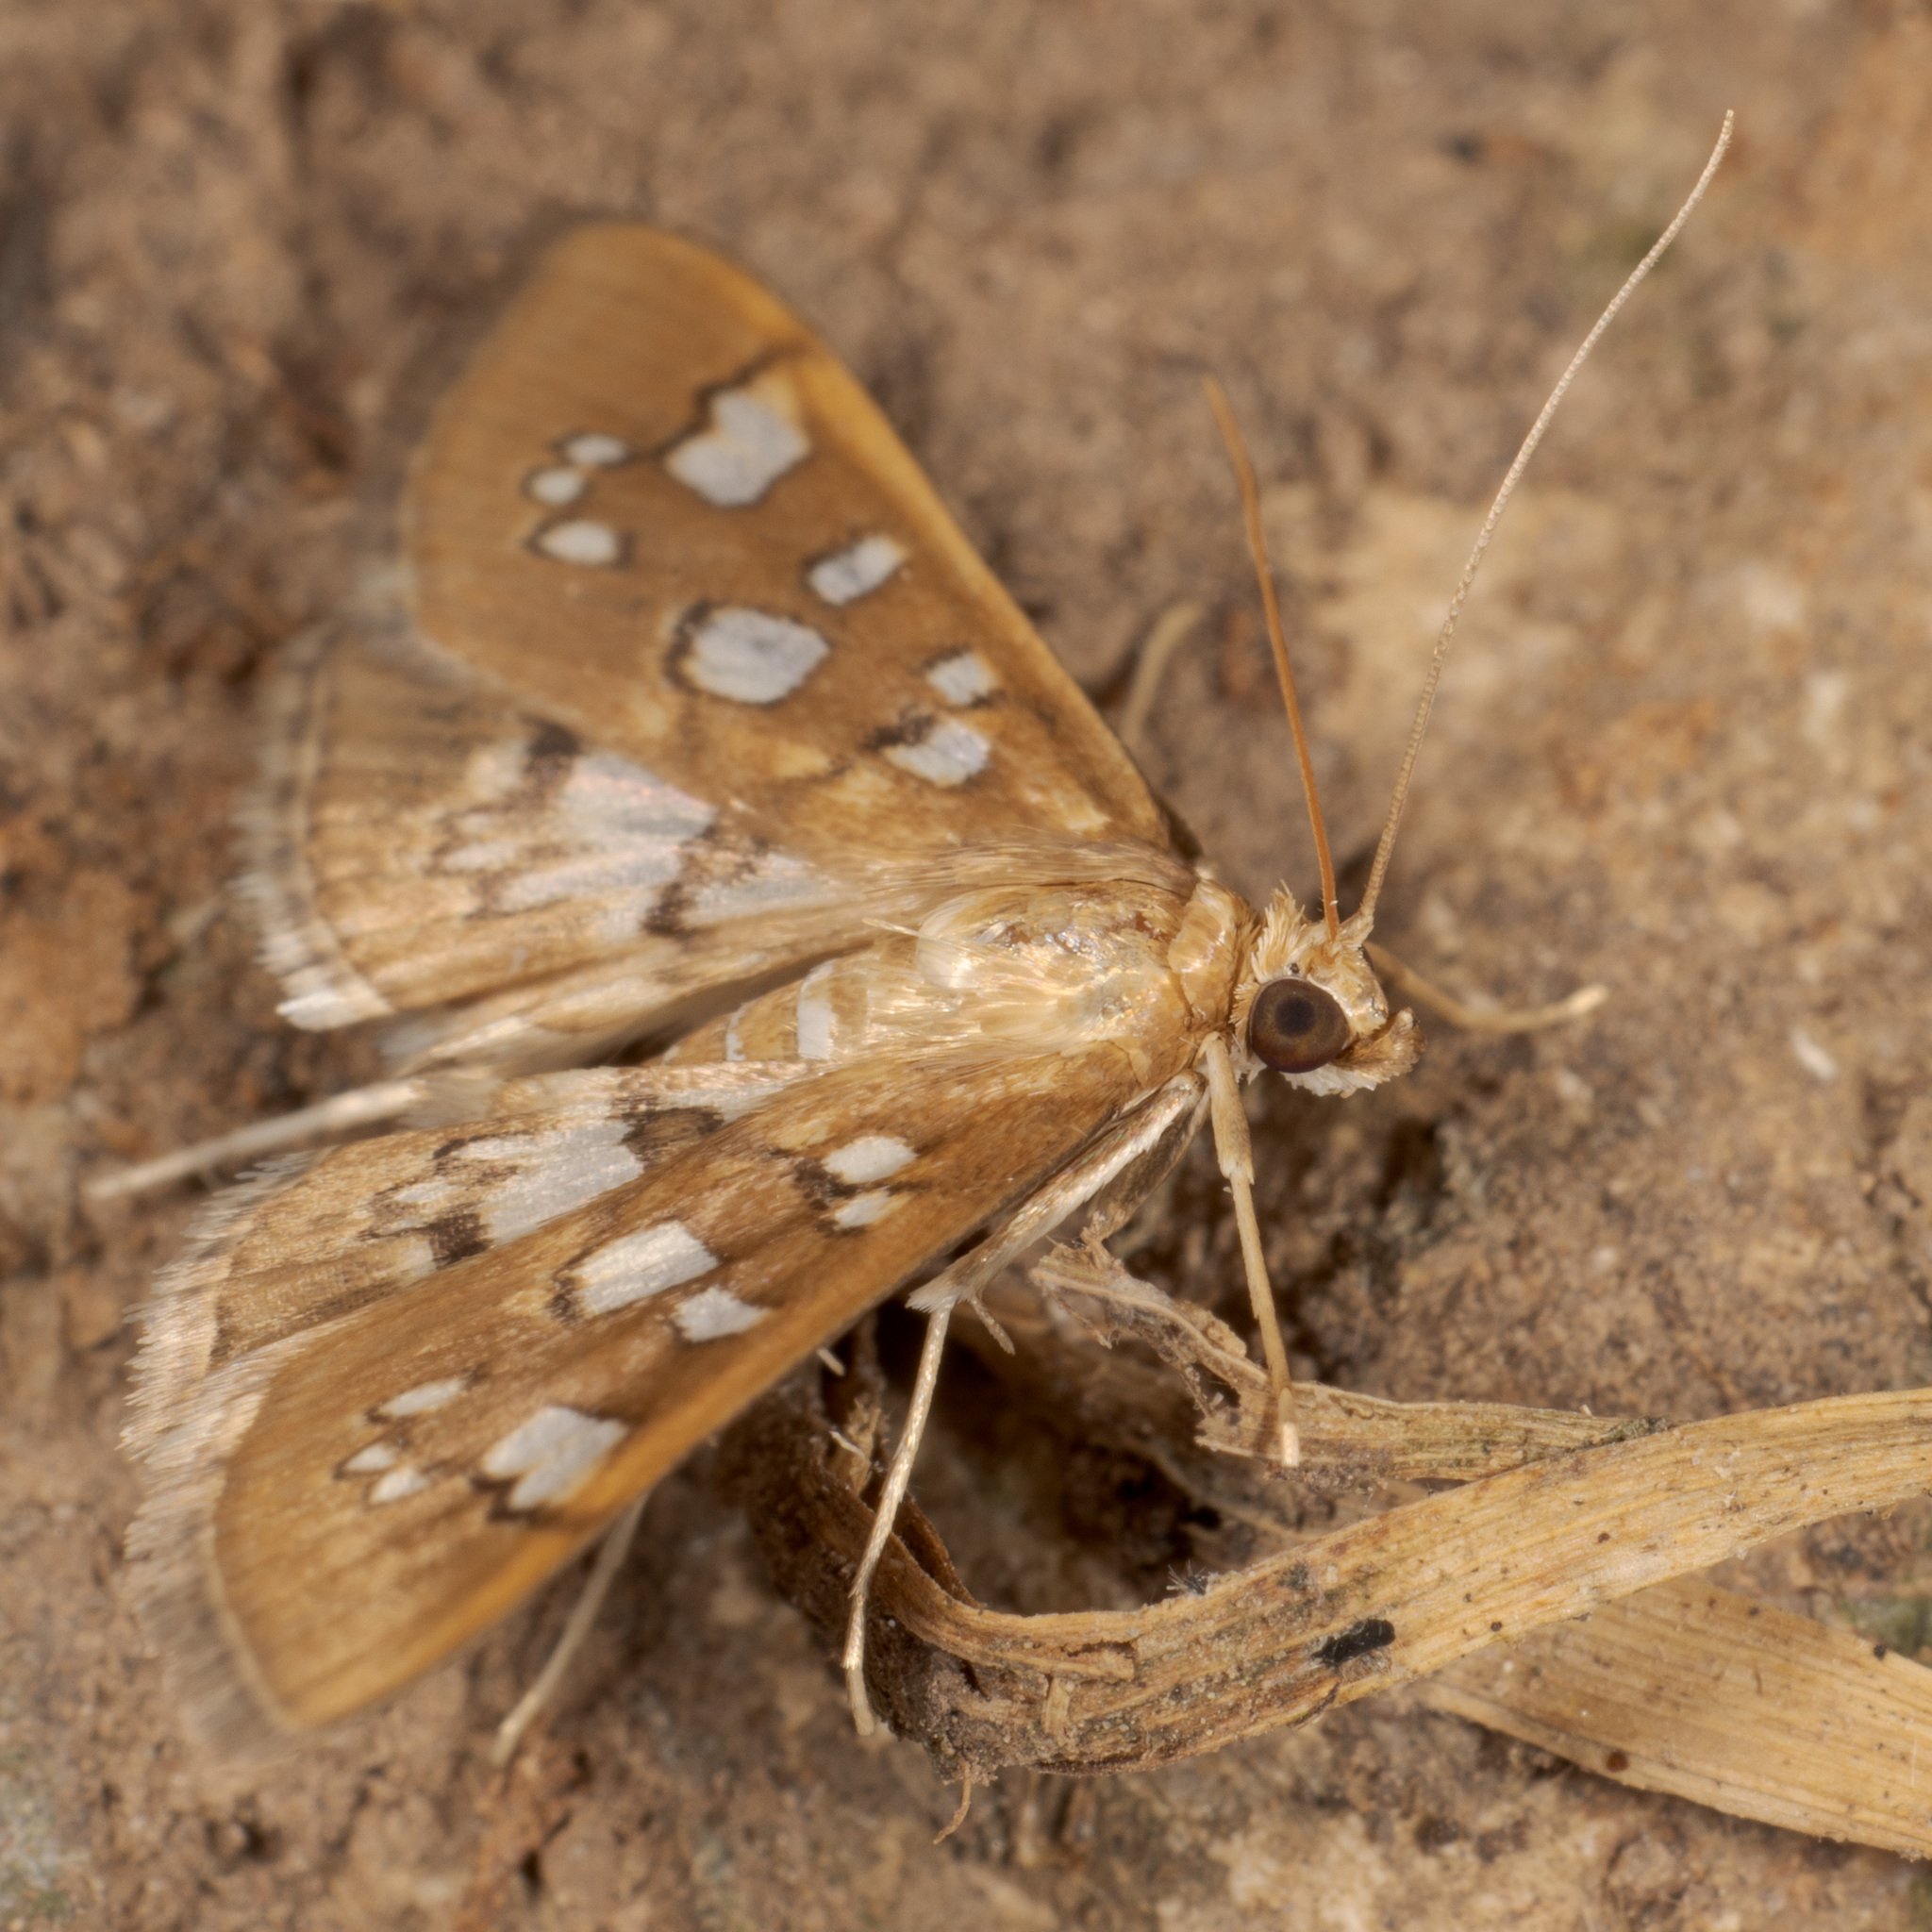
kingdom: Animalia
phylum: Arthropoda
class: Insecta
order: Lepidoptera
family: Crambidae
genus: Samea
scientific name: Samea baccatalis
